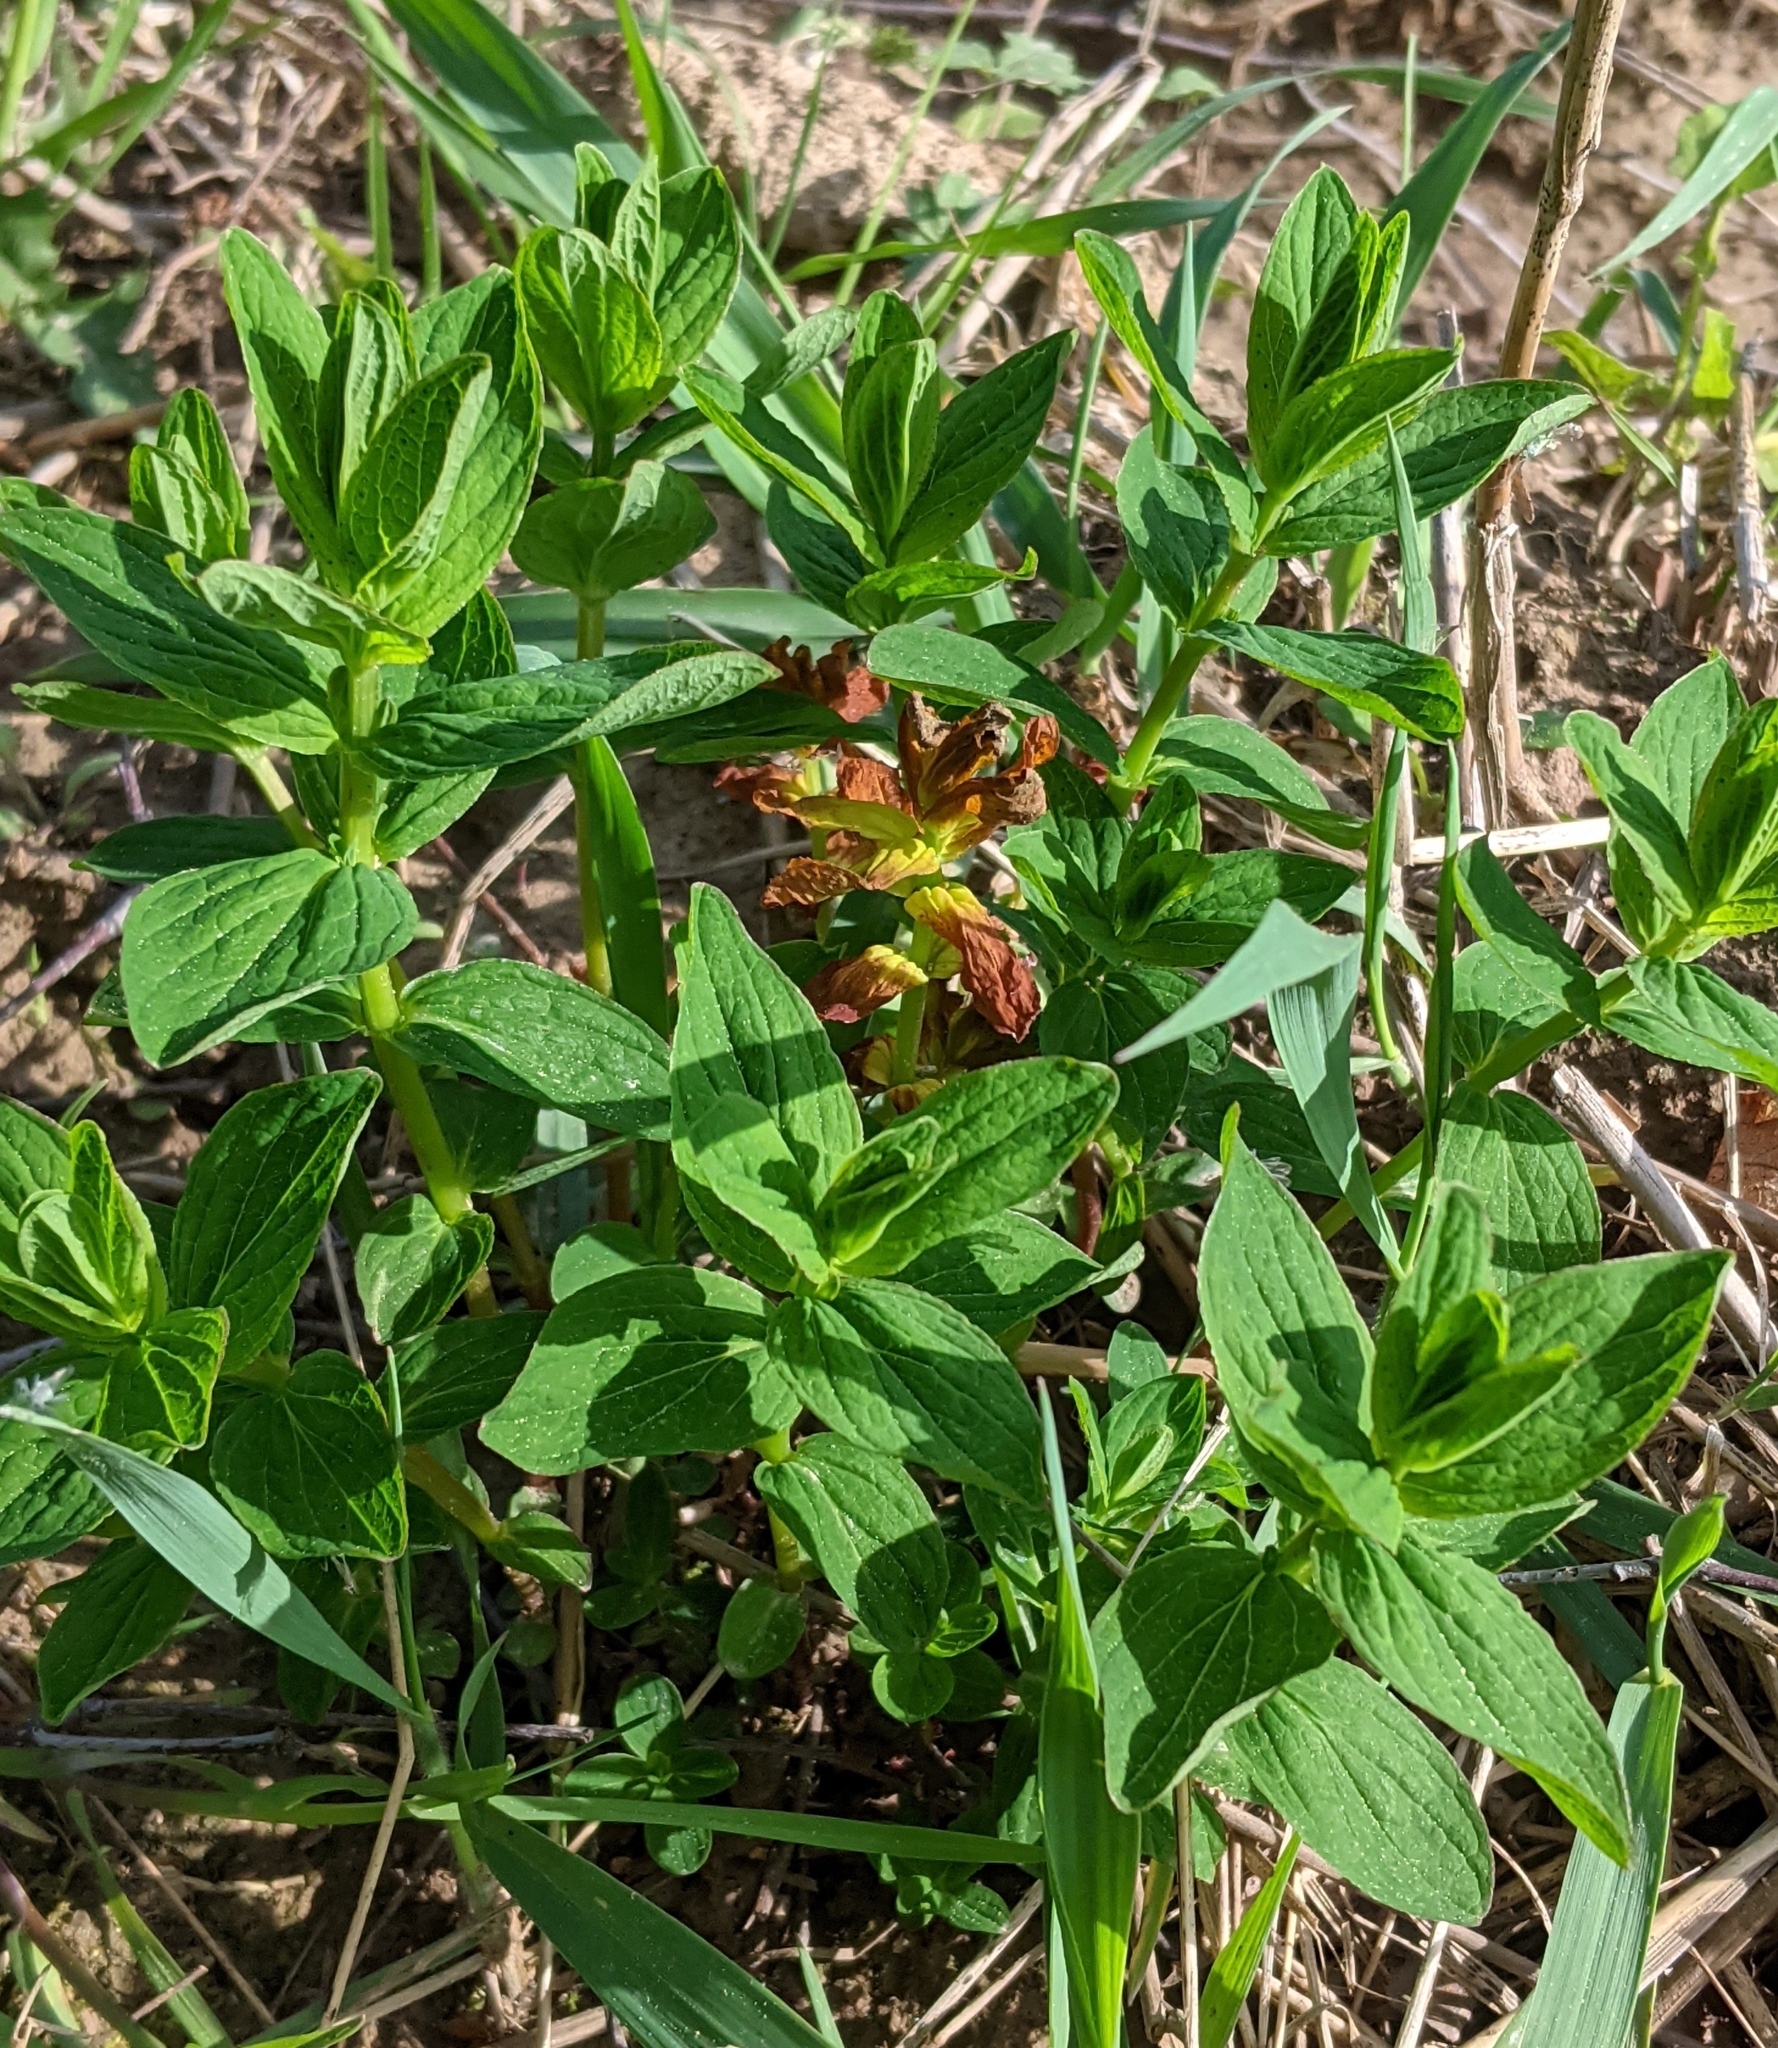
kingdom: Plantae
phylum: Tracheophyta
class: Magnoliopsida
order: Malpighiales
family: Hypericaceae
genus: Hypericum
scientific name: Hypericum maculatum
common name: Imperforate st. john's-wort
